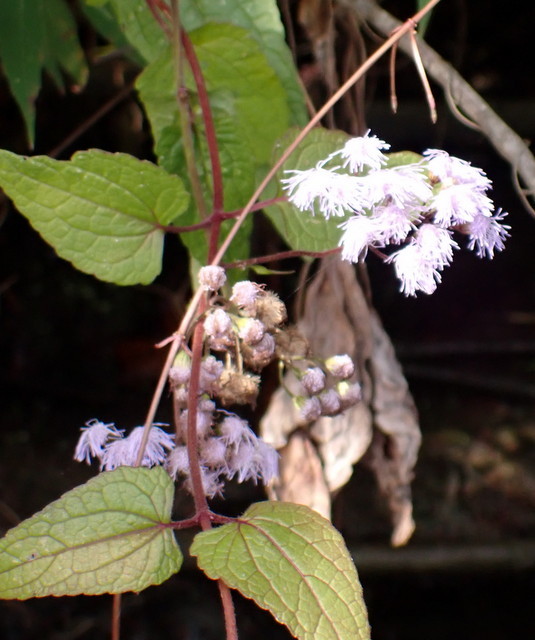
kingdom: Plantae
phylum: Tracheophyta
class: Magnoliopsida
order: Asterales
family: Asteraceae
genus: Conoclinium
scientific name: Conoclinium coelestinum
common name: Blue mistflower
